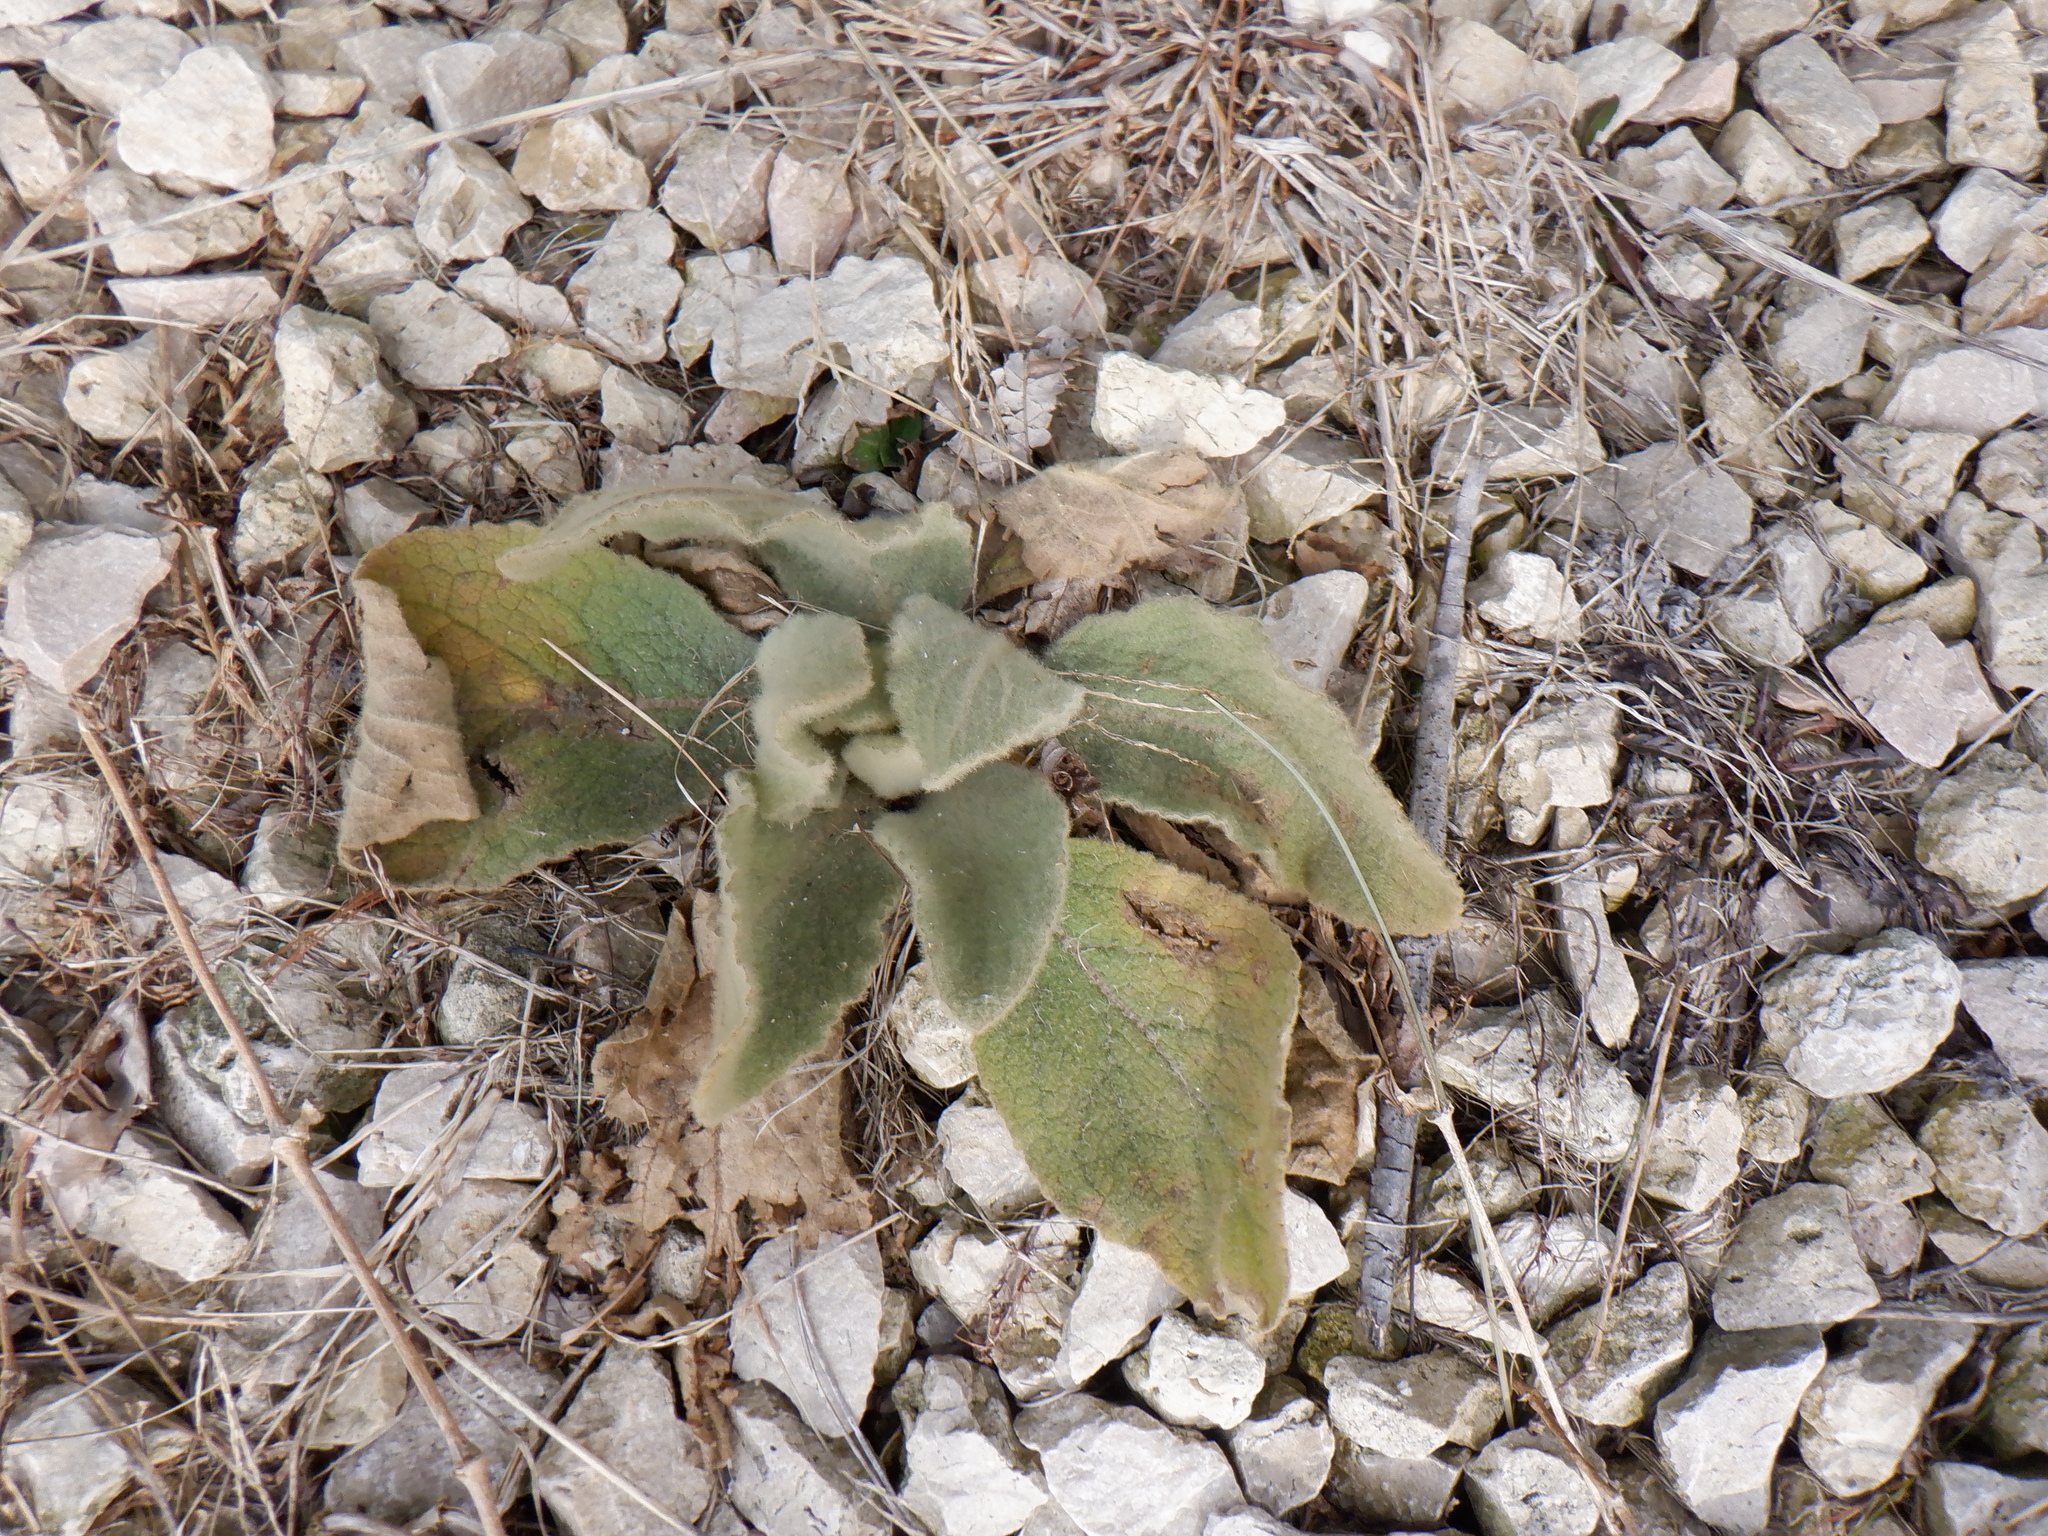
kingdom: Plantae
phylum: Tracheophyta
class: Magnoliopsida
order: Lamiales
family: Scrophulariaceae
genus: Verbascum
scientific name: Verbascum thapsus
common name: Common mullein
